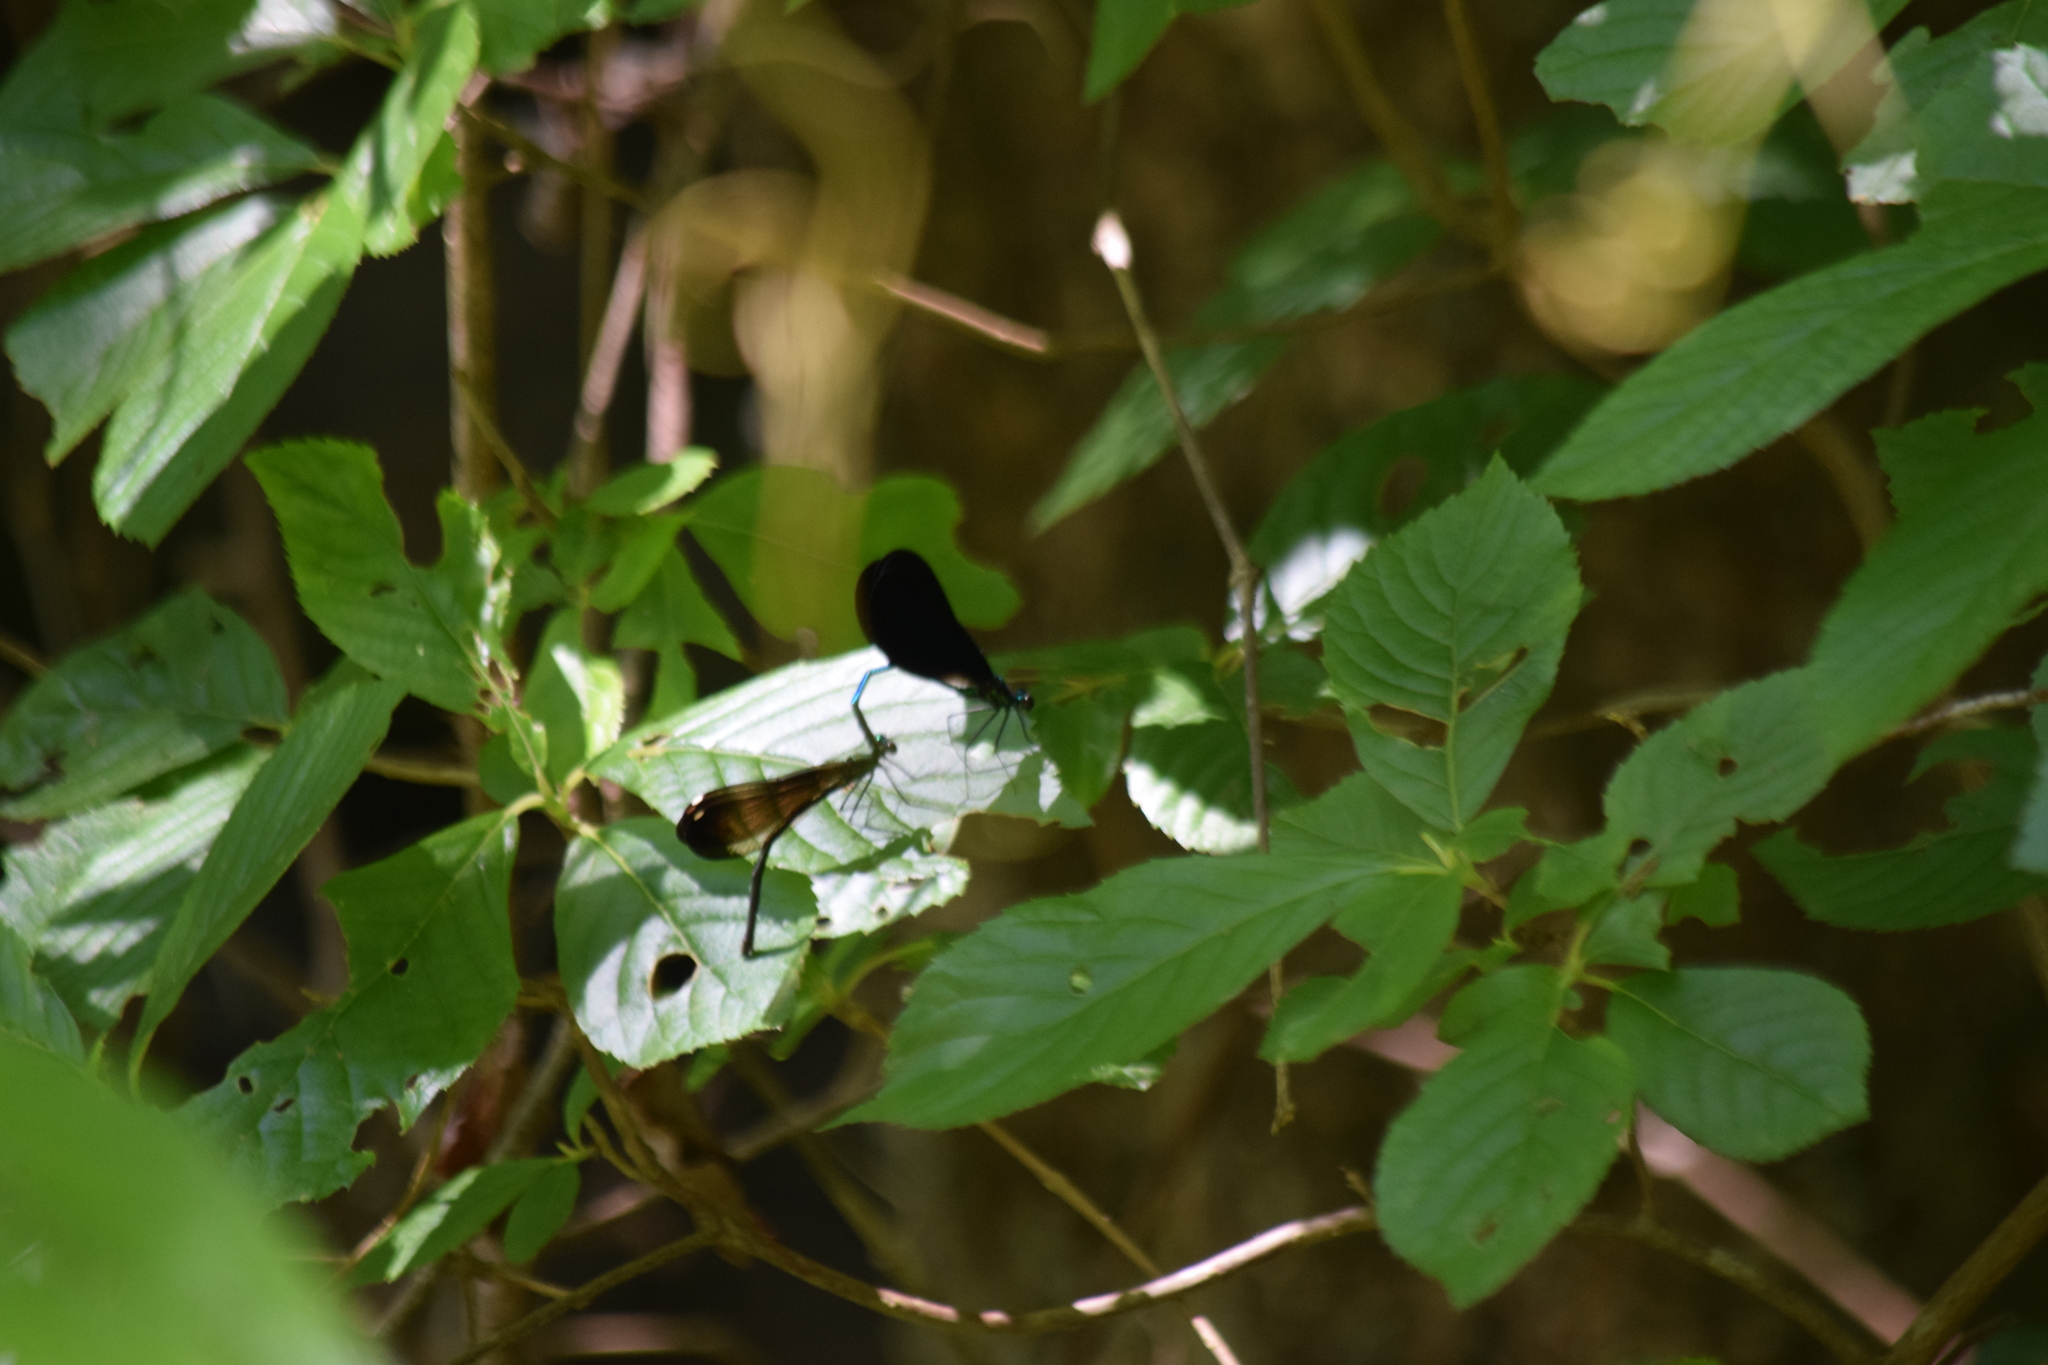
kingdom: Animalia
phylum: Arthropoda
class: Insecta
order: Odonata
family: Calopterygidae
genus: Calopteryx
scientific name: Calopteryx maculata
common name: Ebony jewelwing
